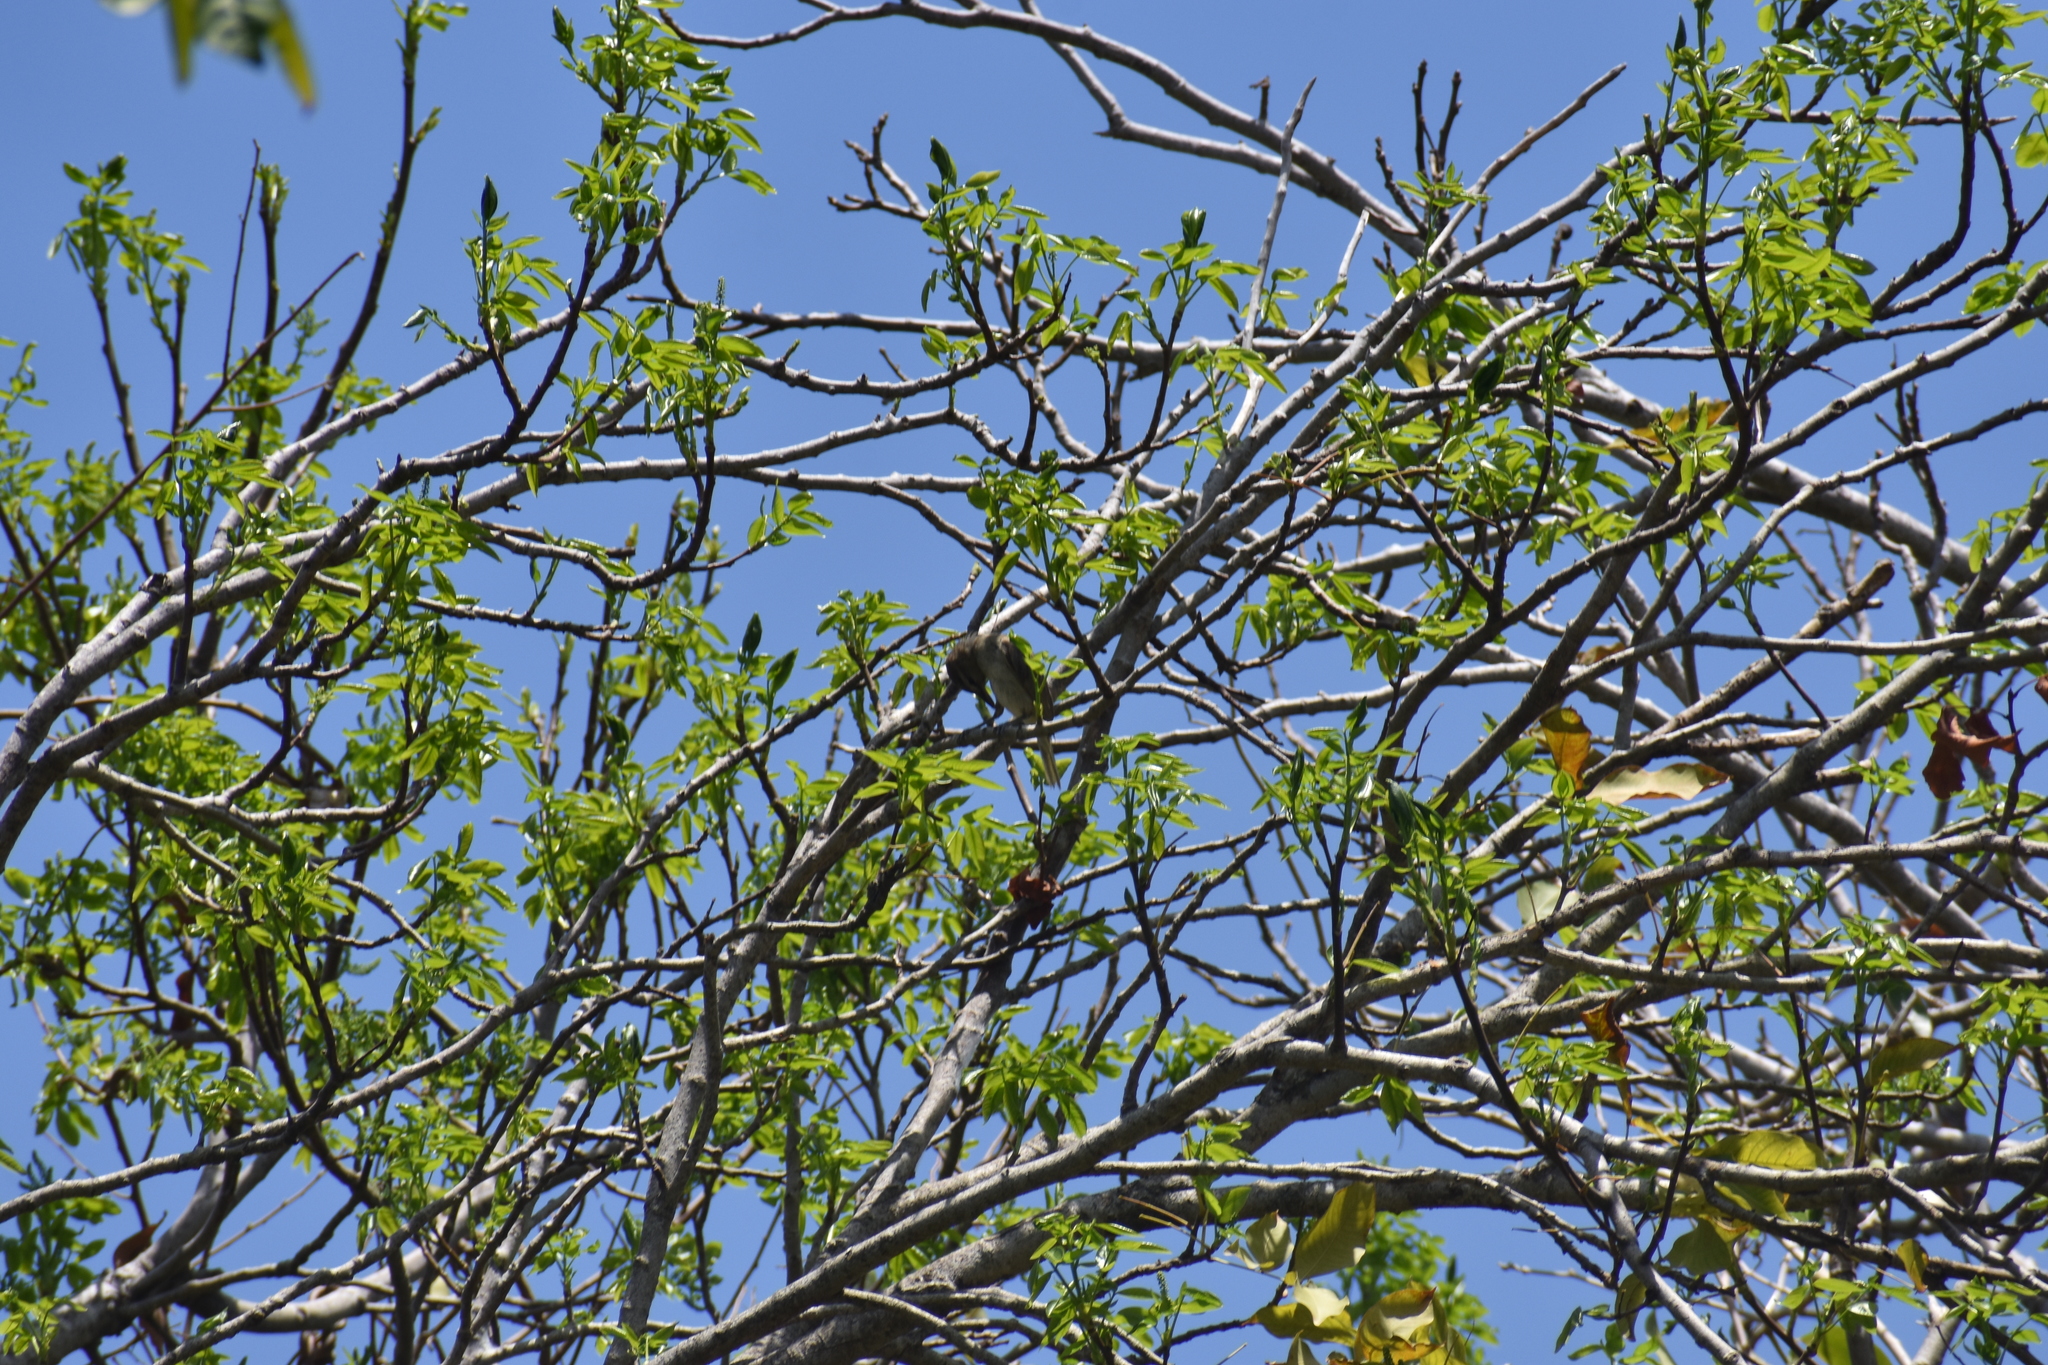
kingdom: Animalia
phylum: Chordata
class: Aves
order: Passeriformes
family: Vireonidae
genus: Vireo
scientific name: Vireo altiloquus
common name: Black-whiskered vireo
